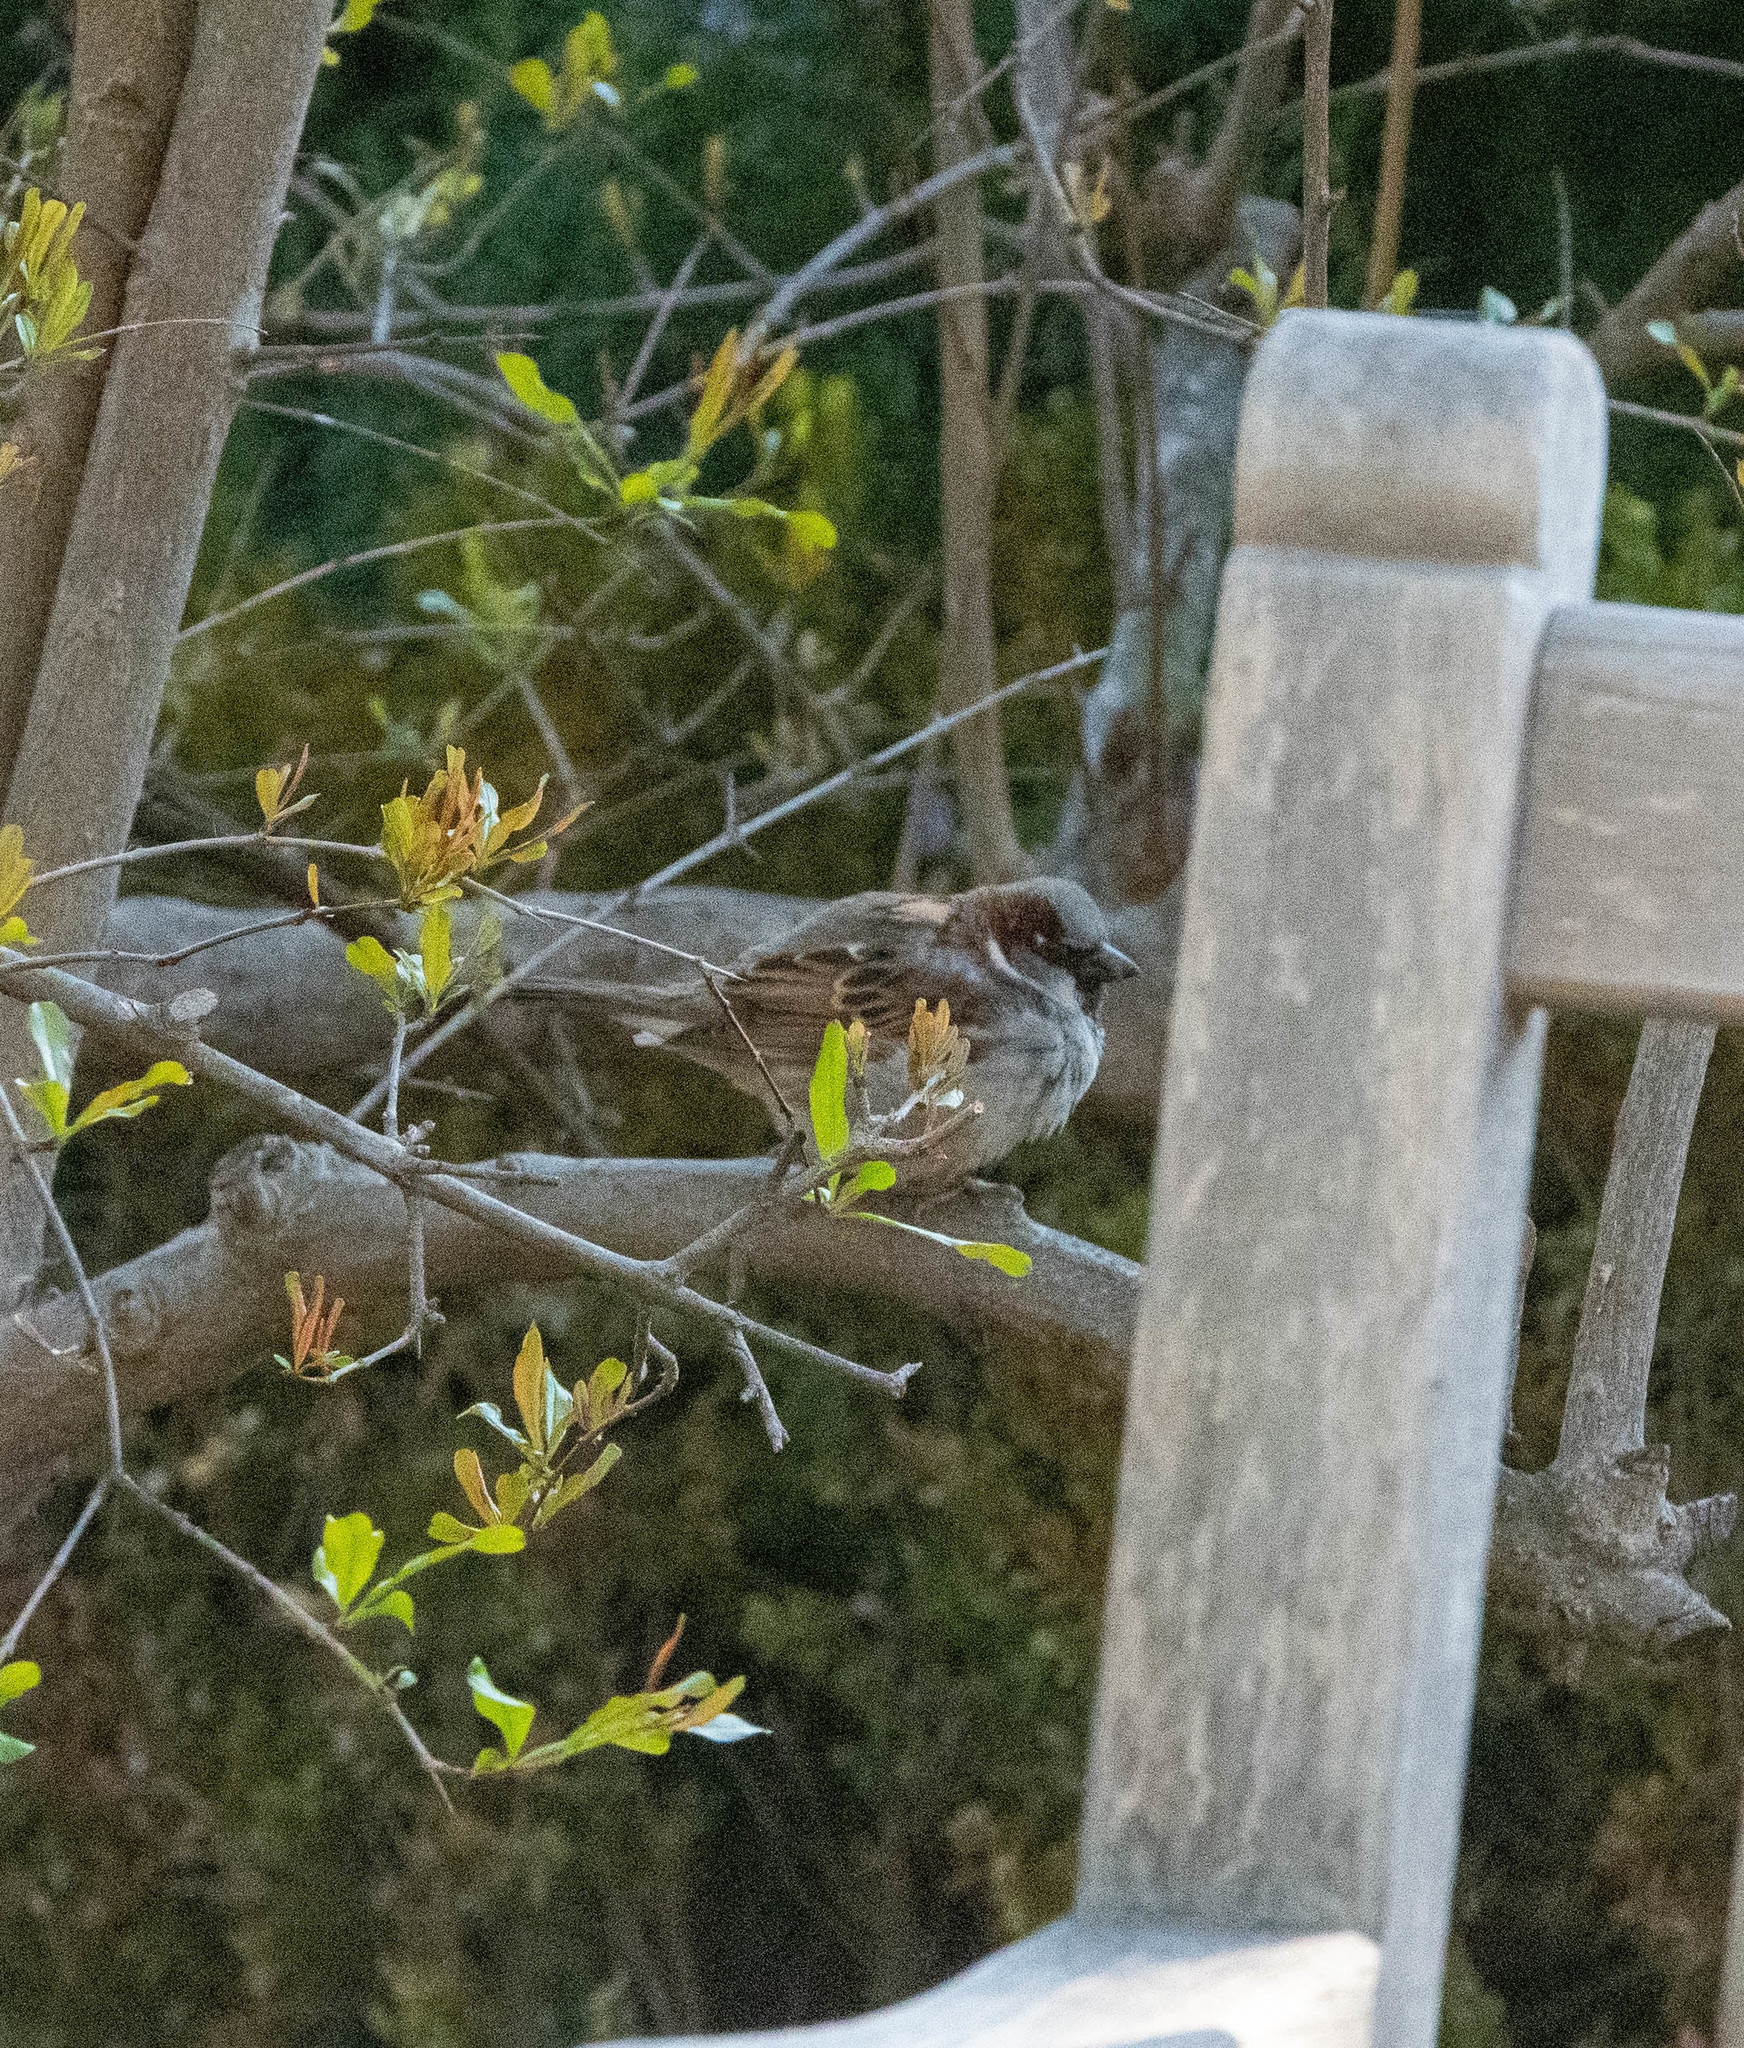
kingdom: Animalia
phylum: Chordata
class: Aves
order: Passeriformes
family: Passeridae
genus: Passer
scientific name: Passer domesticus
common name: House sparrow
